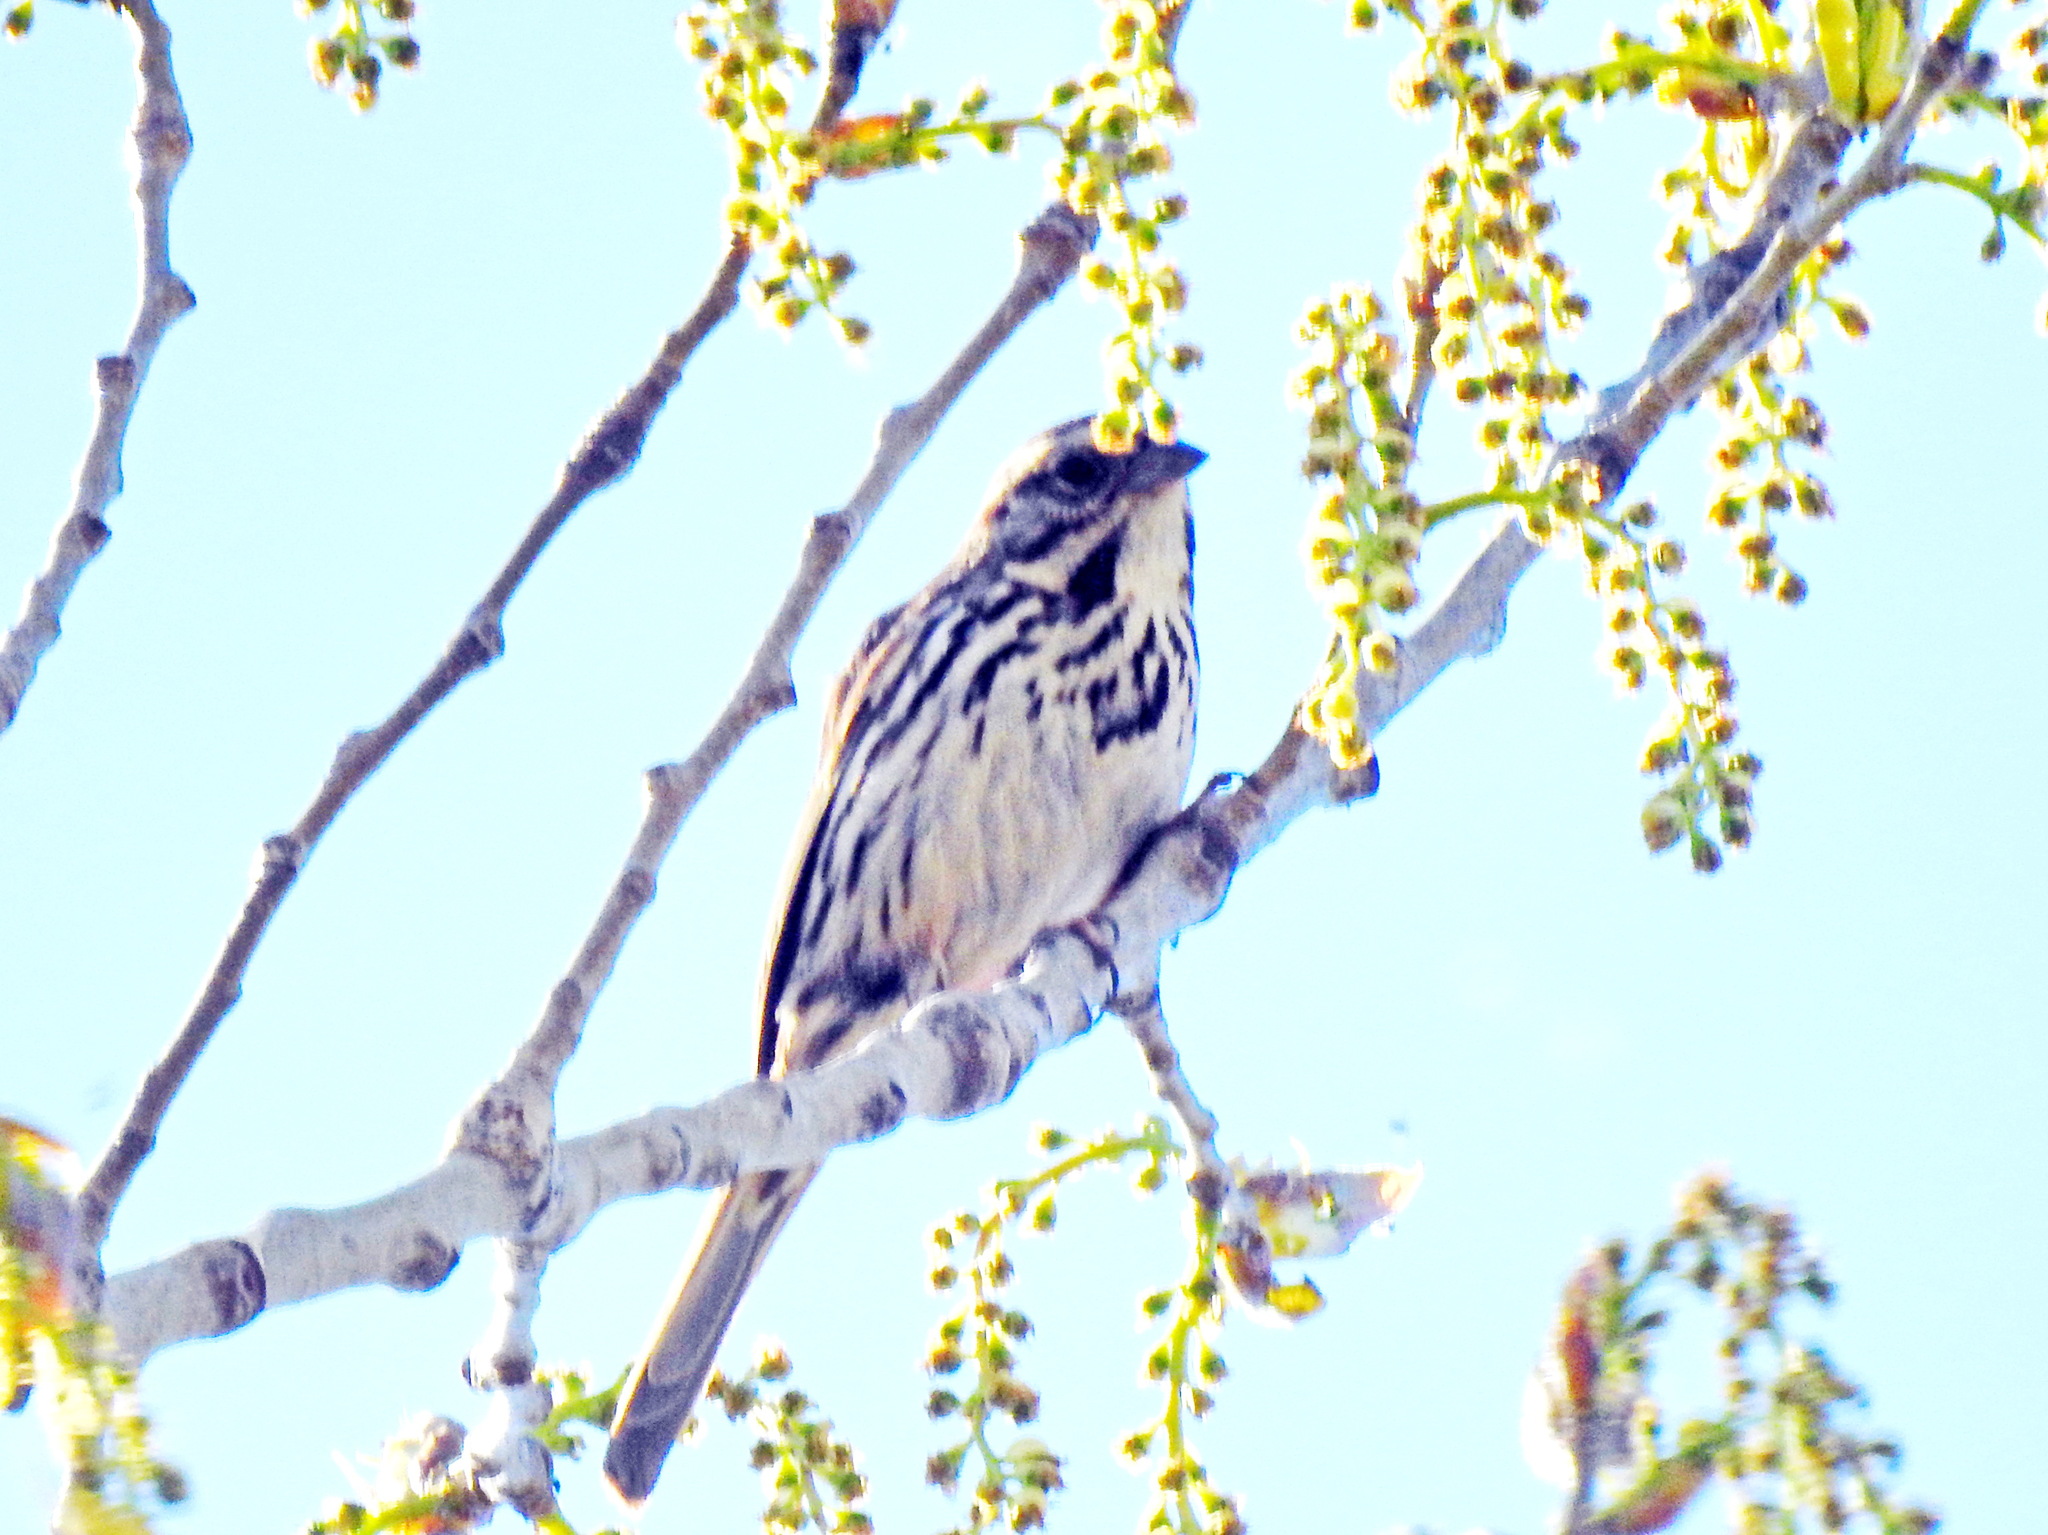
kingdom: Animalia
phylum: Chordata
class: Aves
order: Passeriformes
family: Passerellidae
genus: Melospiza
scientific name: Melospiza melodia
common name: Song sparrow
